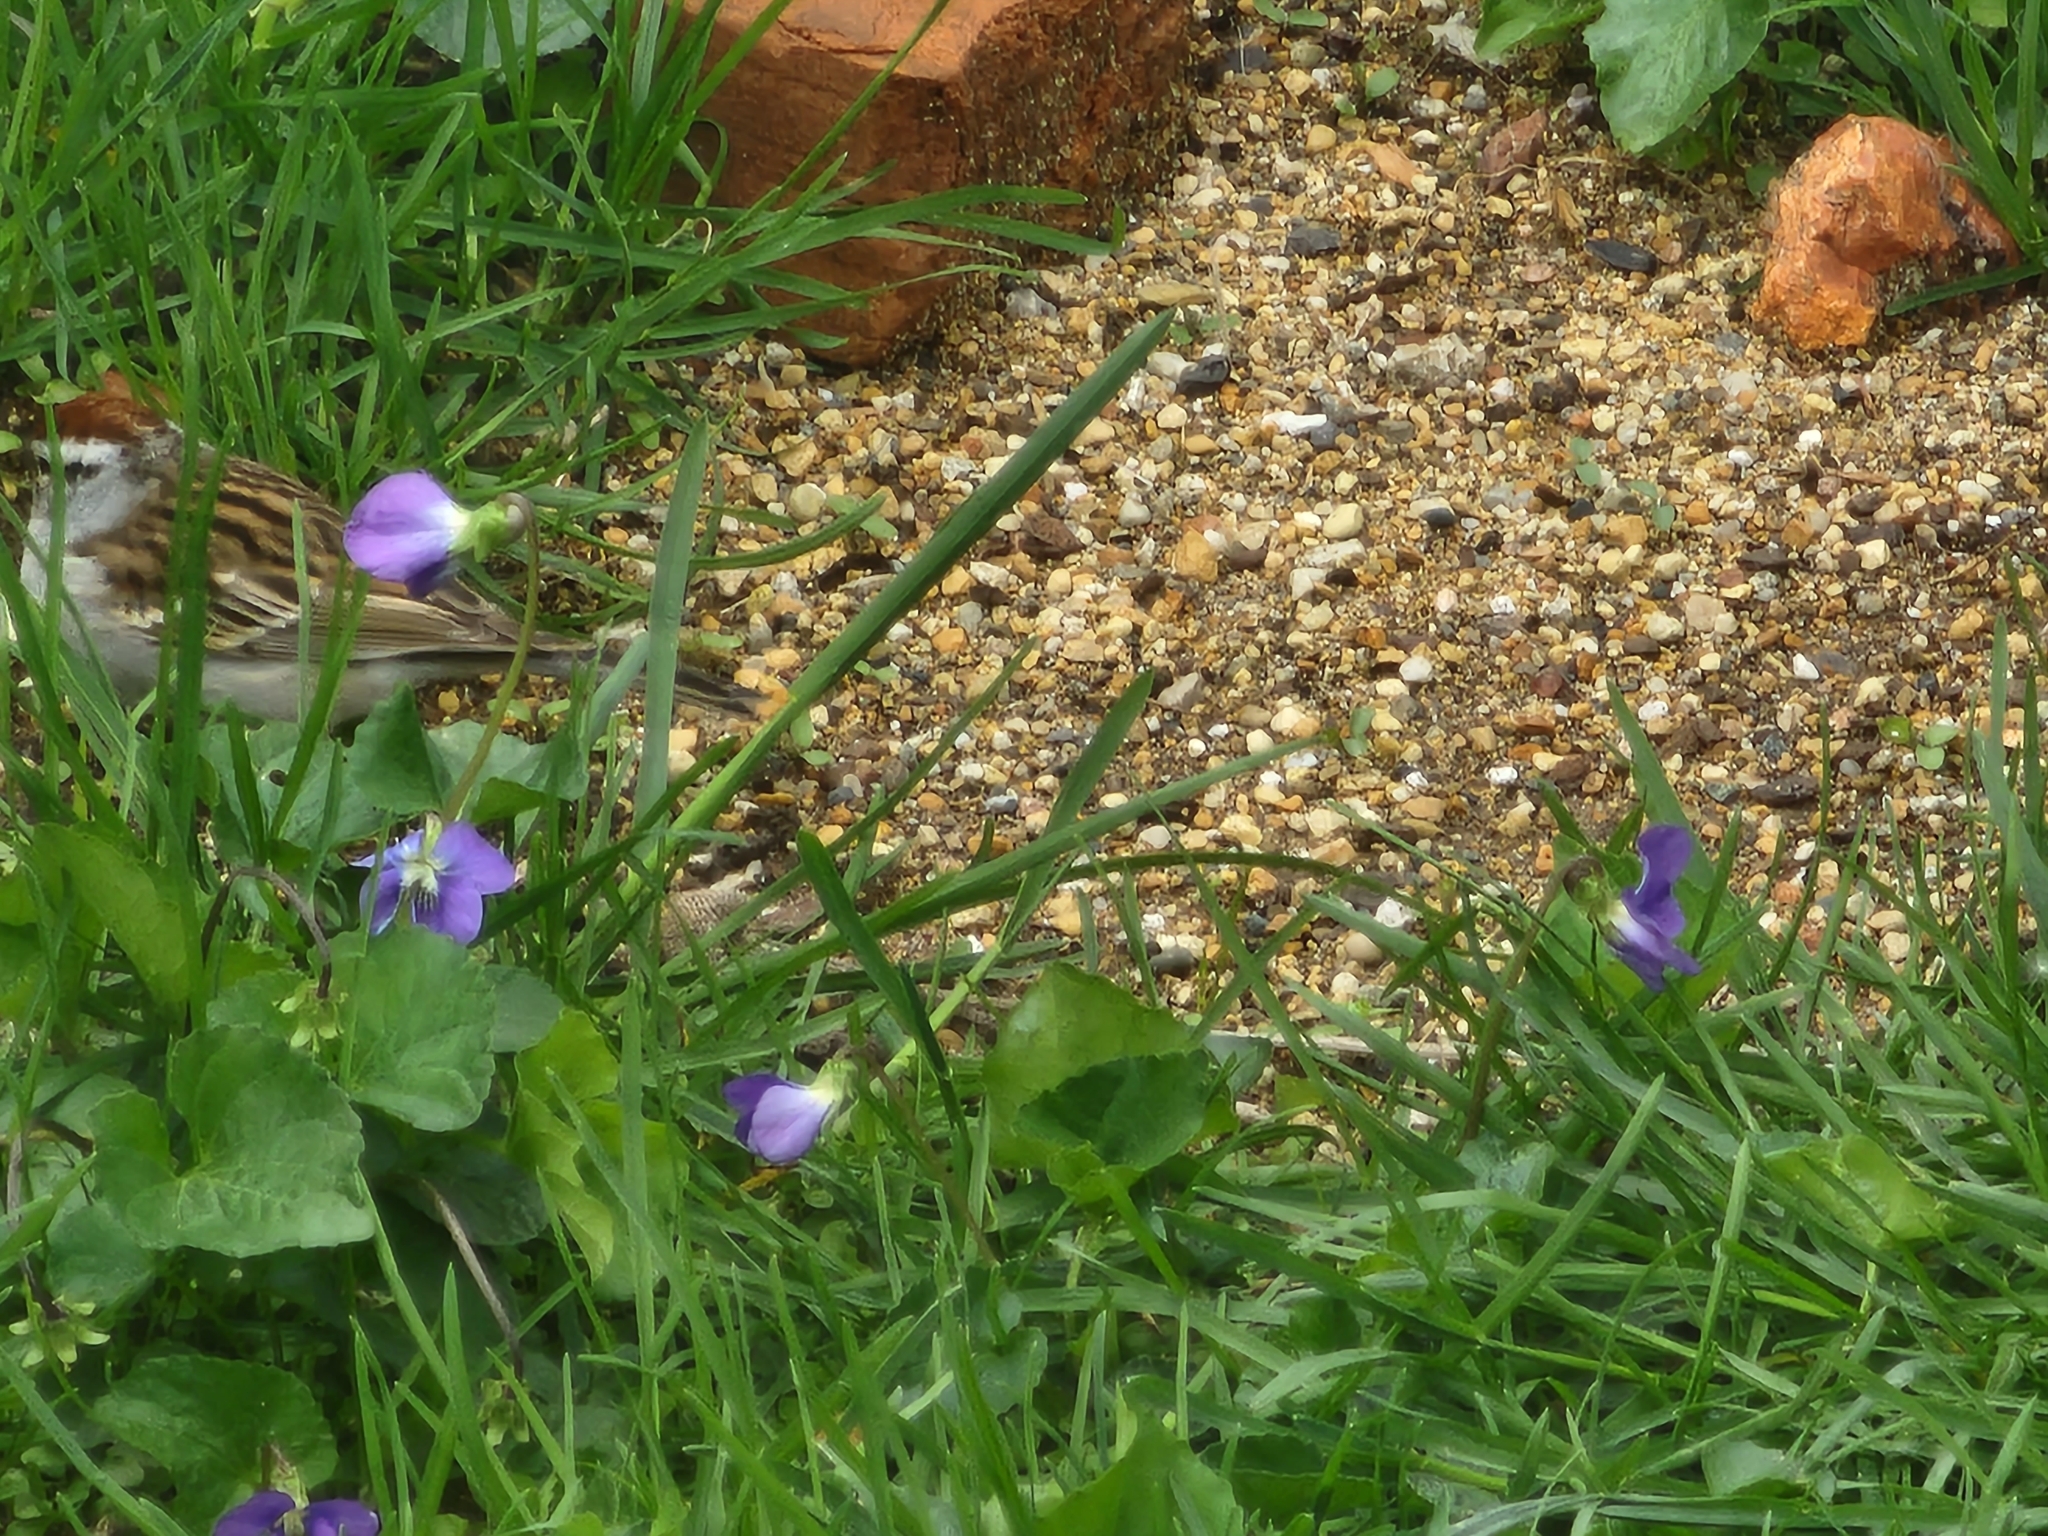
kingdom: Animalia
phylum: Chordata
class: Aves
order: Passeriformes
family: Passerellidae
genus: Spizella
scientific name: Spizella passerina
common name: Chipping sparrow
